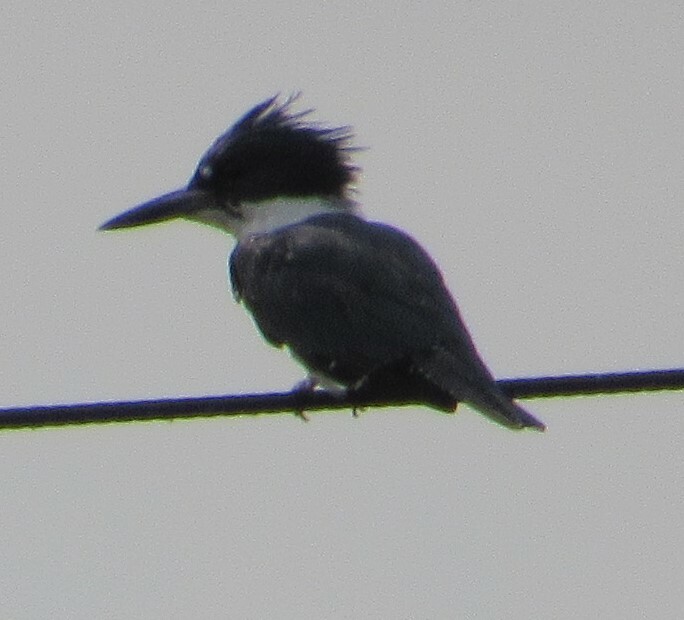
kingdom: Animalia
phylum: Chordata
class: Aves
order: Coraciiformes
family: Alcedinidae
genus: Megaceryle
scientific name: Megaceryle alcyon
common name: Belted kingfisher
